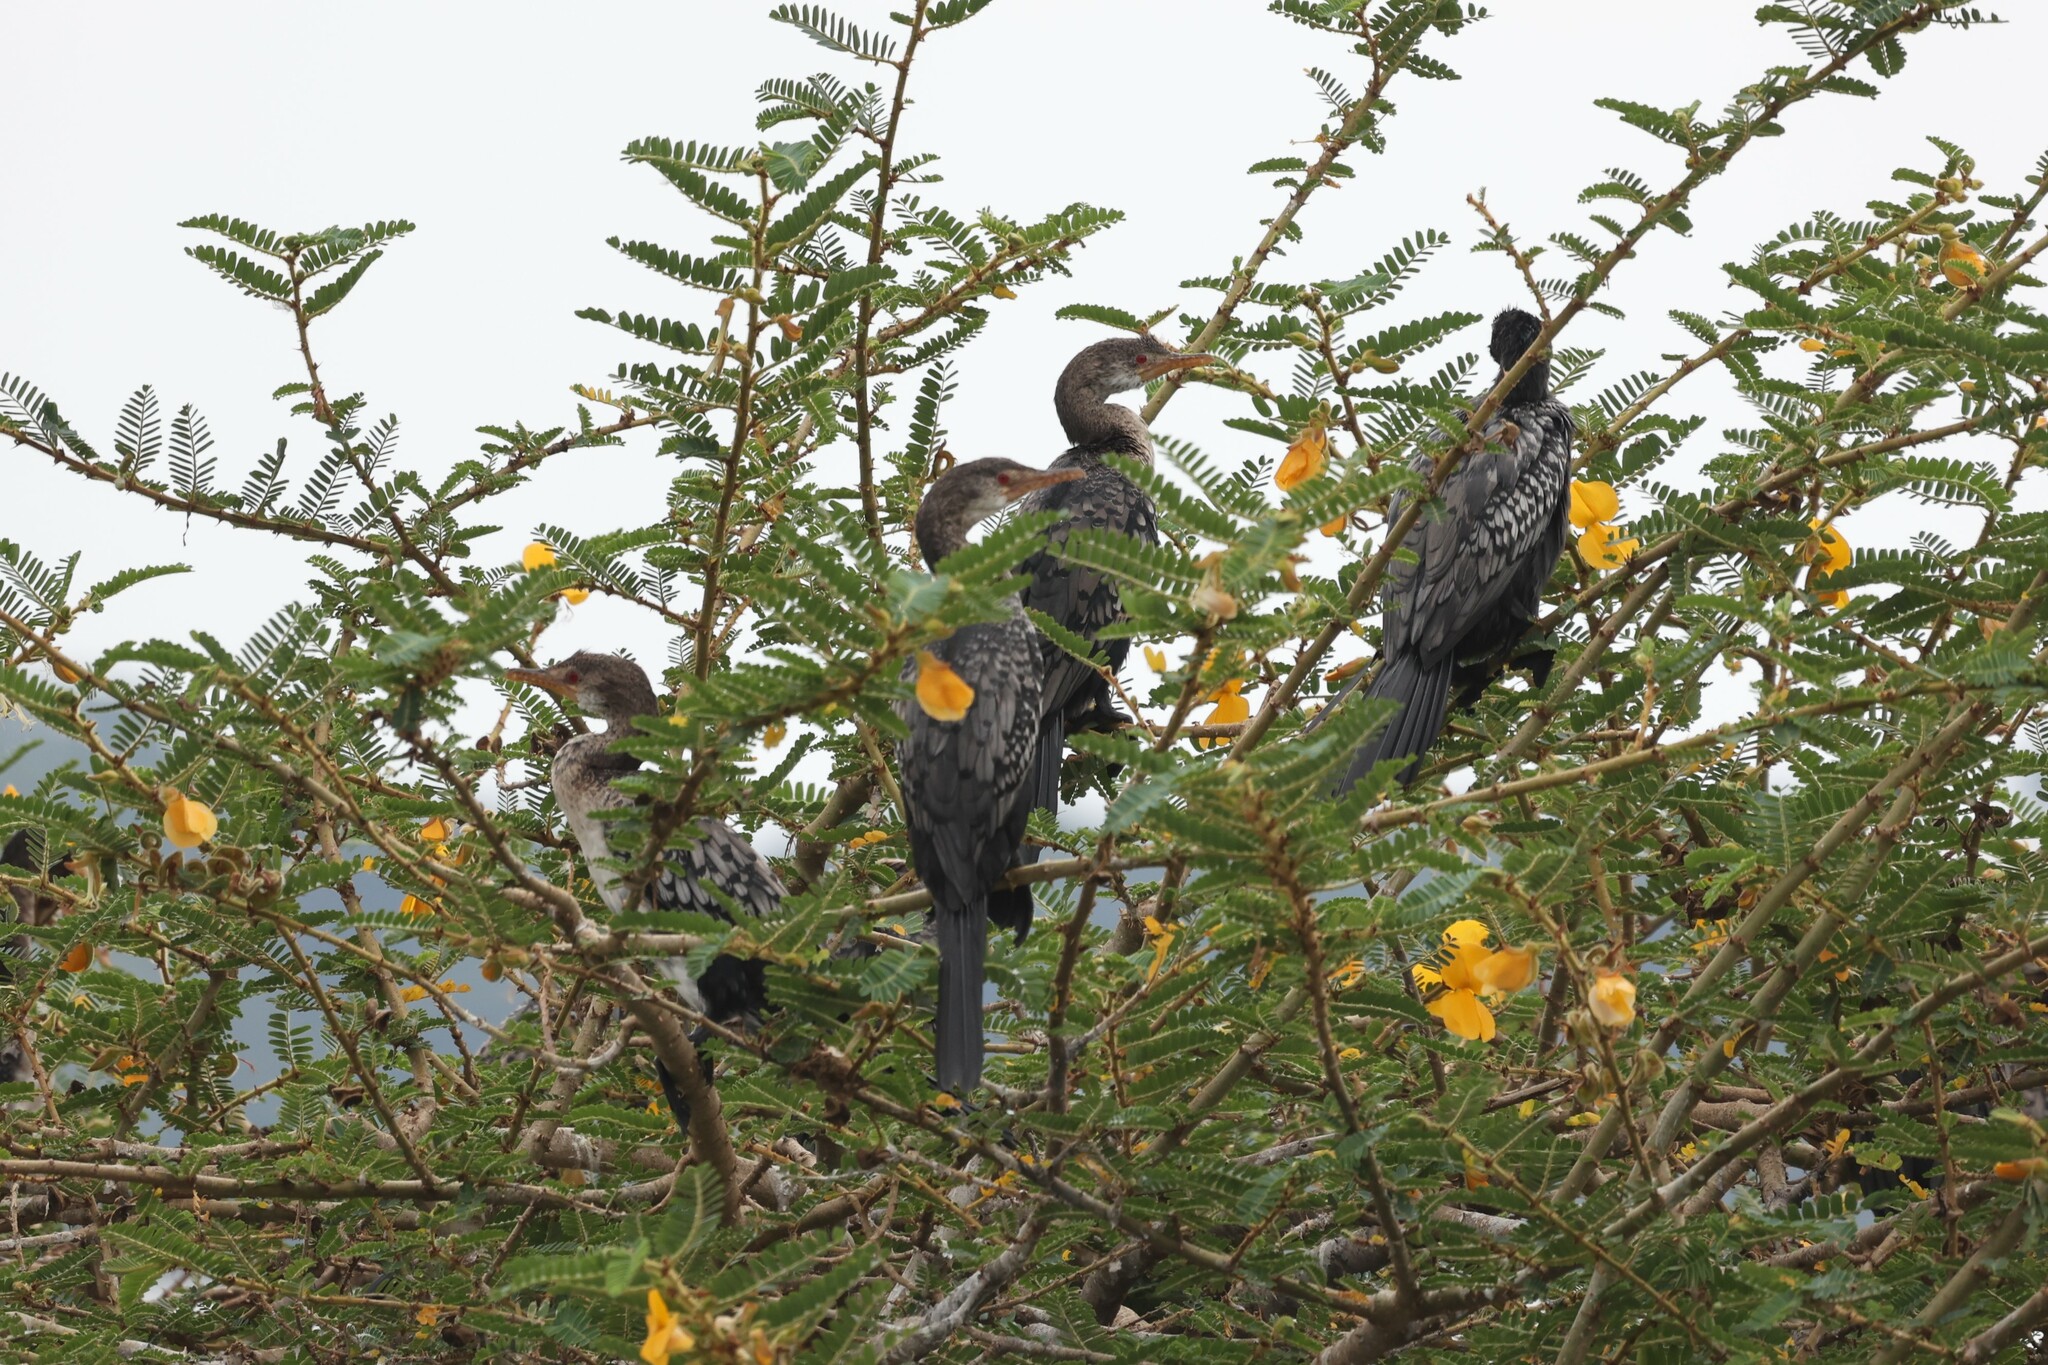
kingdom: Animalia
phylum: Chordata
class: Aves
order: Suliformes
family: Phalacrocoracidae
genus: Microcarbo
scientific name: Microcarbo africanus
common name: Long-tailed cormorant
